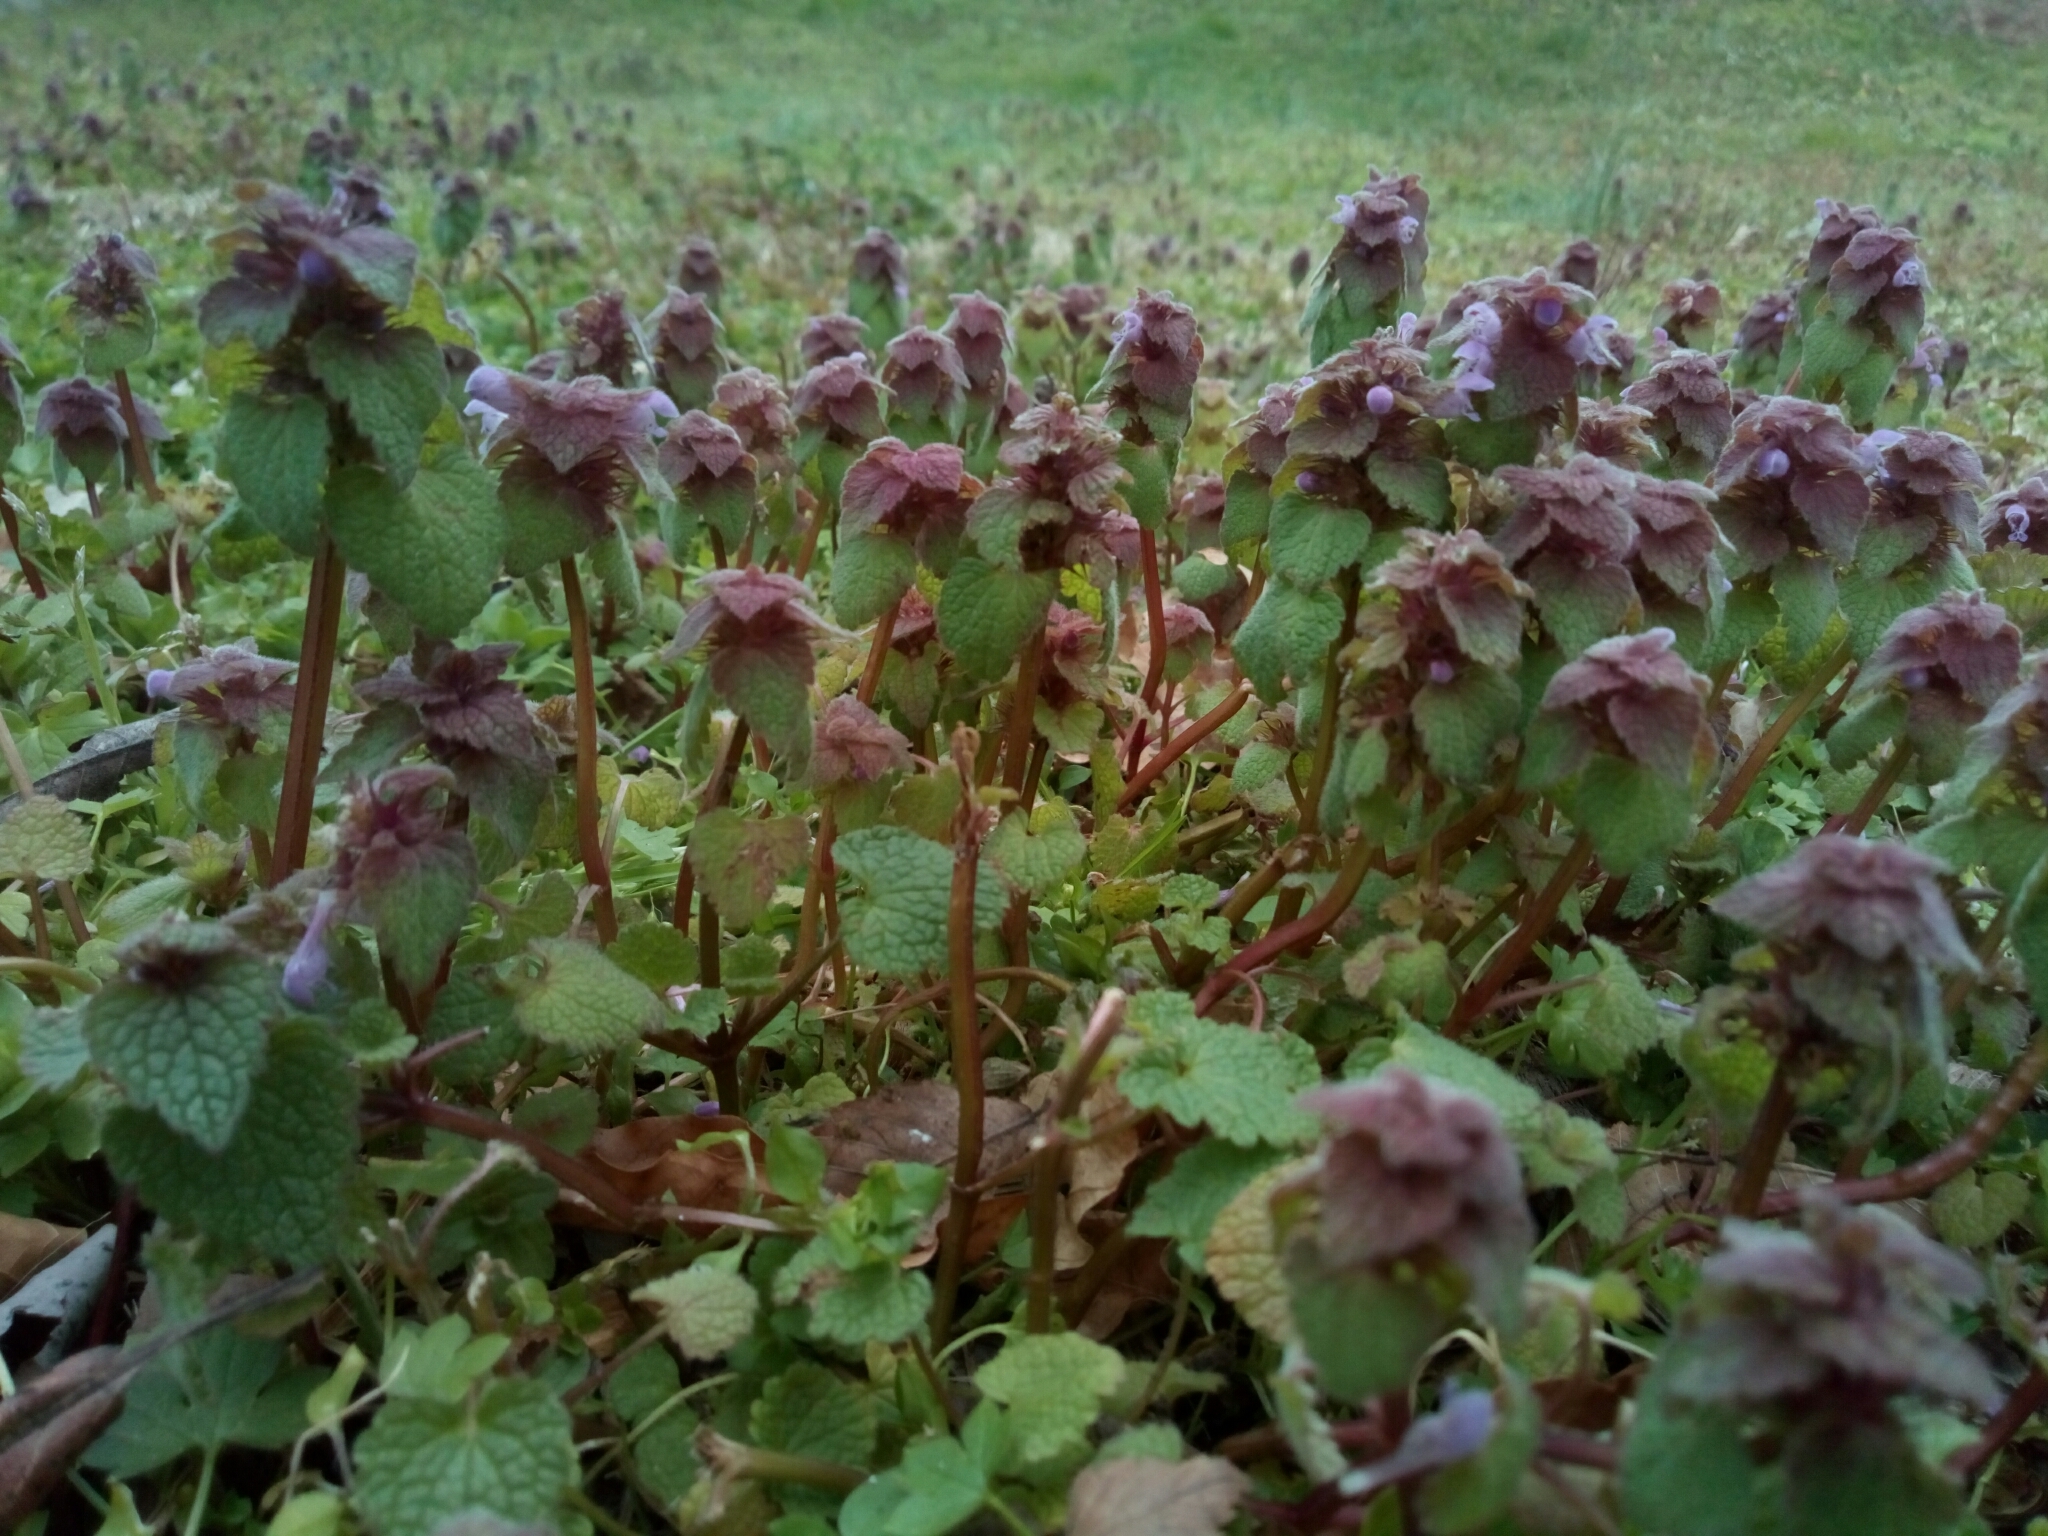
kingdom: Plantae
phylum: Tracheophyta
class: Magnoliopsida
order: Lamiales
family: Lamiaceae
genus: Lamium
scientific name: Lamium purpureum
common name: Red dead-nettle
